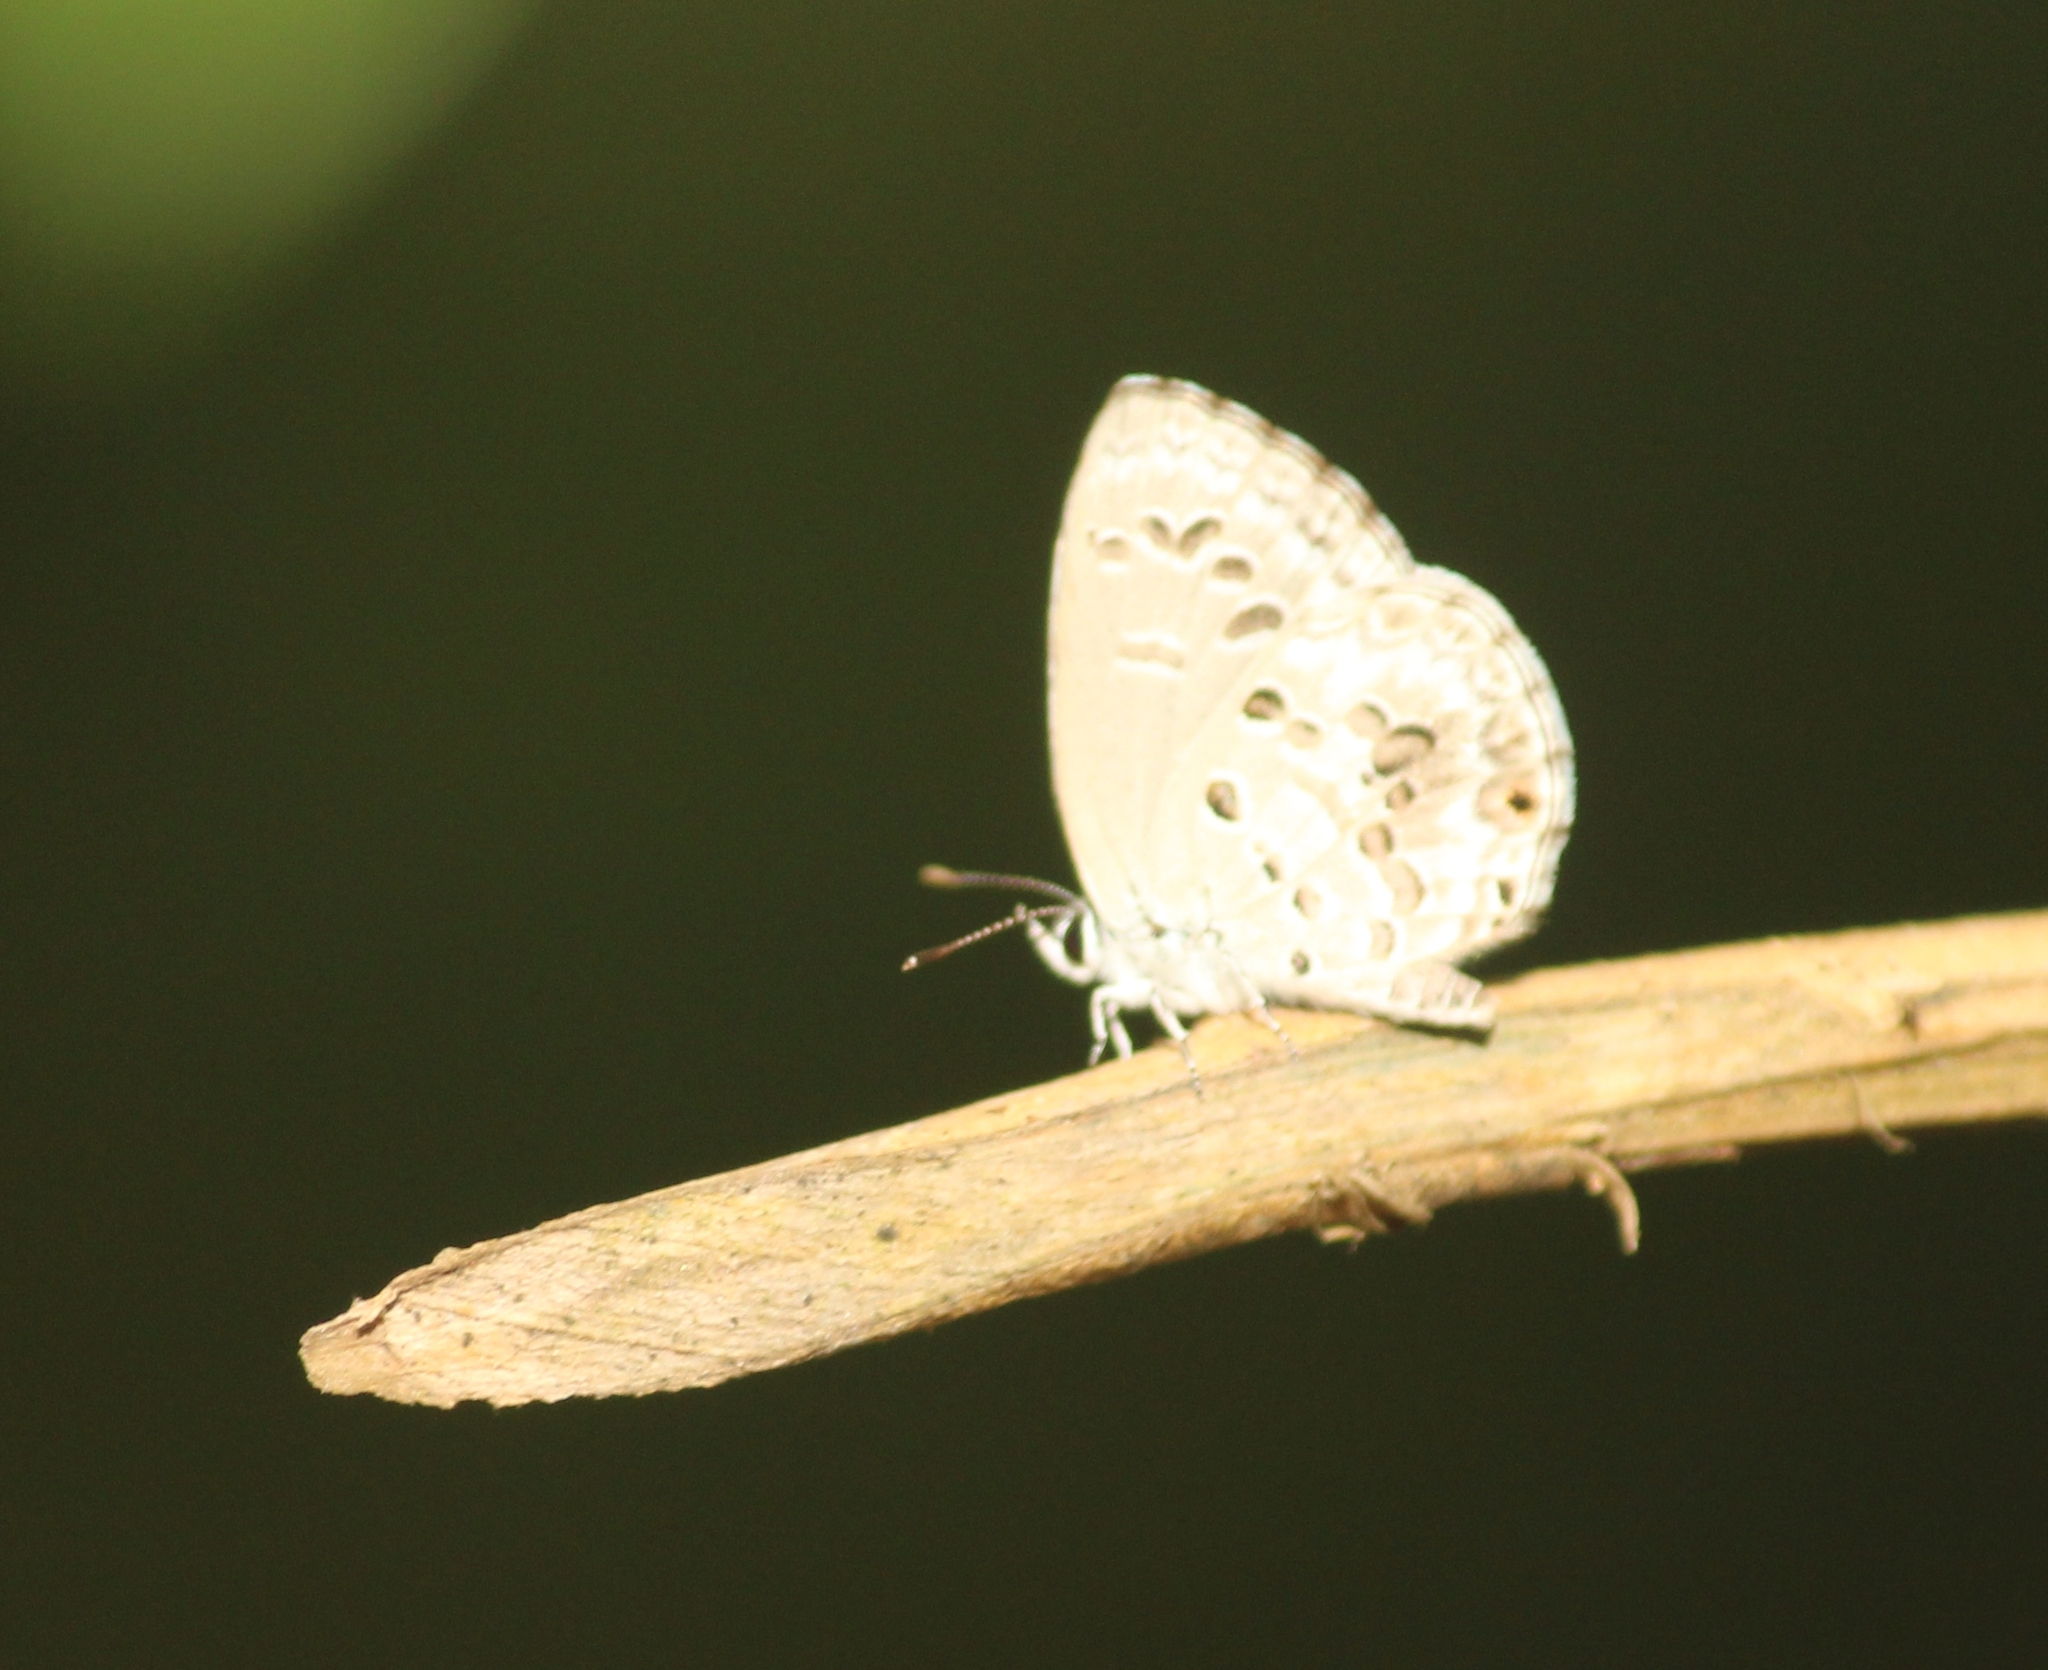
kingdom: Animalia
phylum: Arthropoda
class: Insecta
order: Lepidoptera
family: Lycaenidae
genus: Chilades
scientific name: Chilades laius
